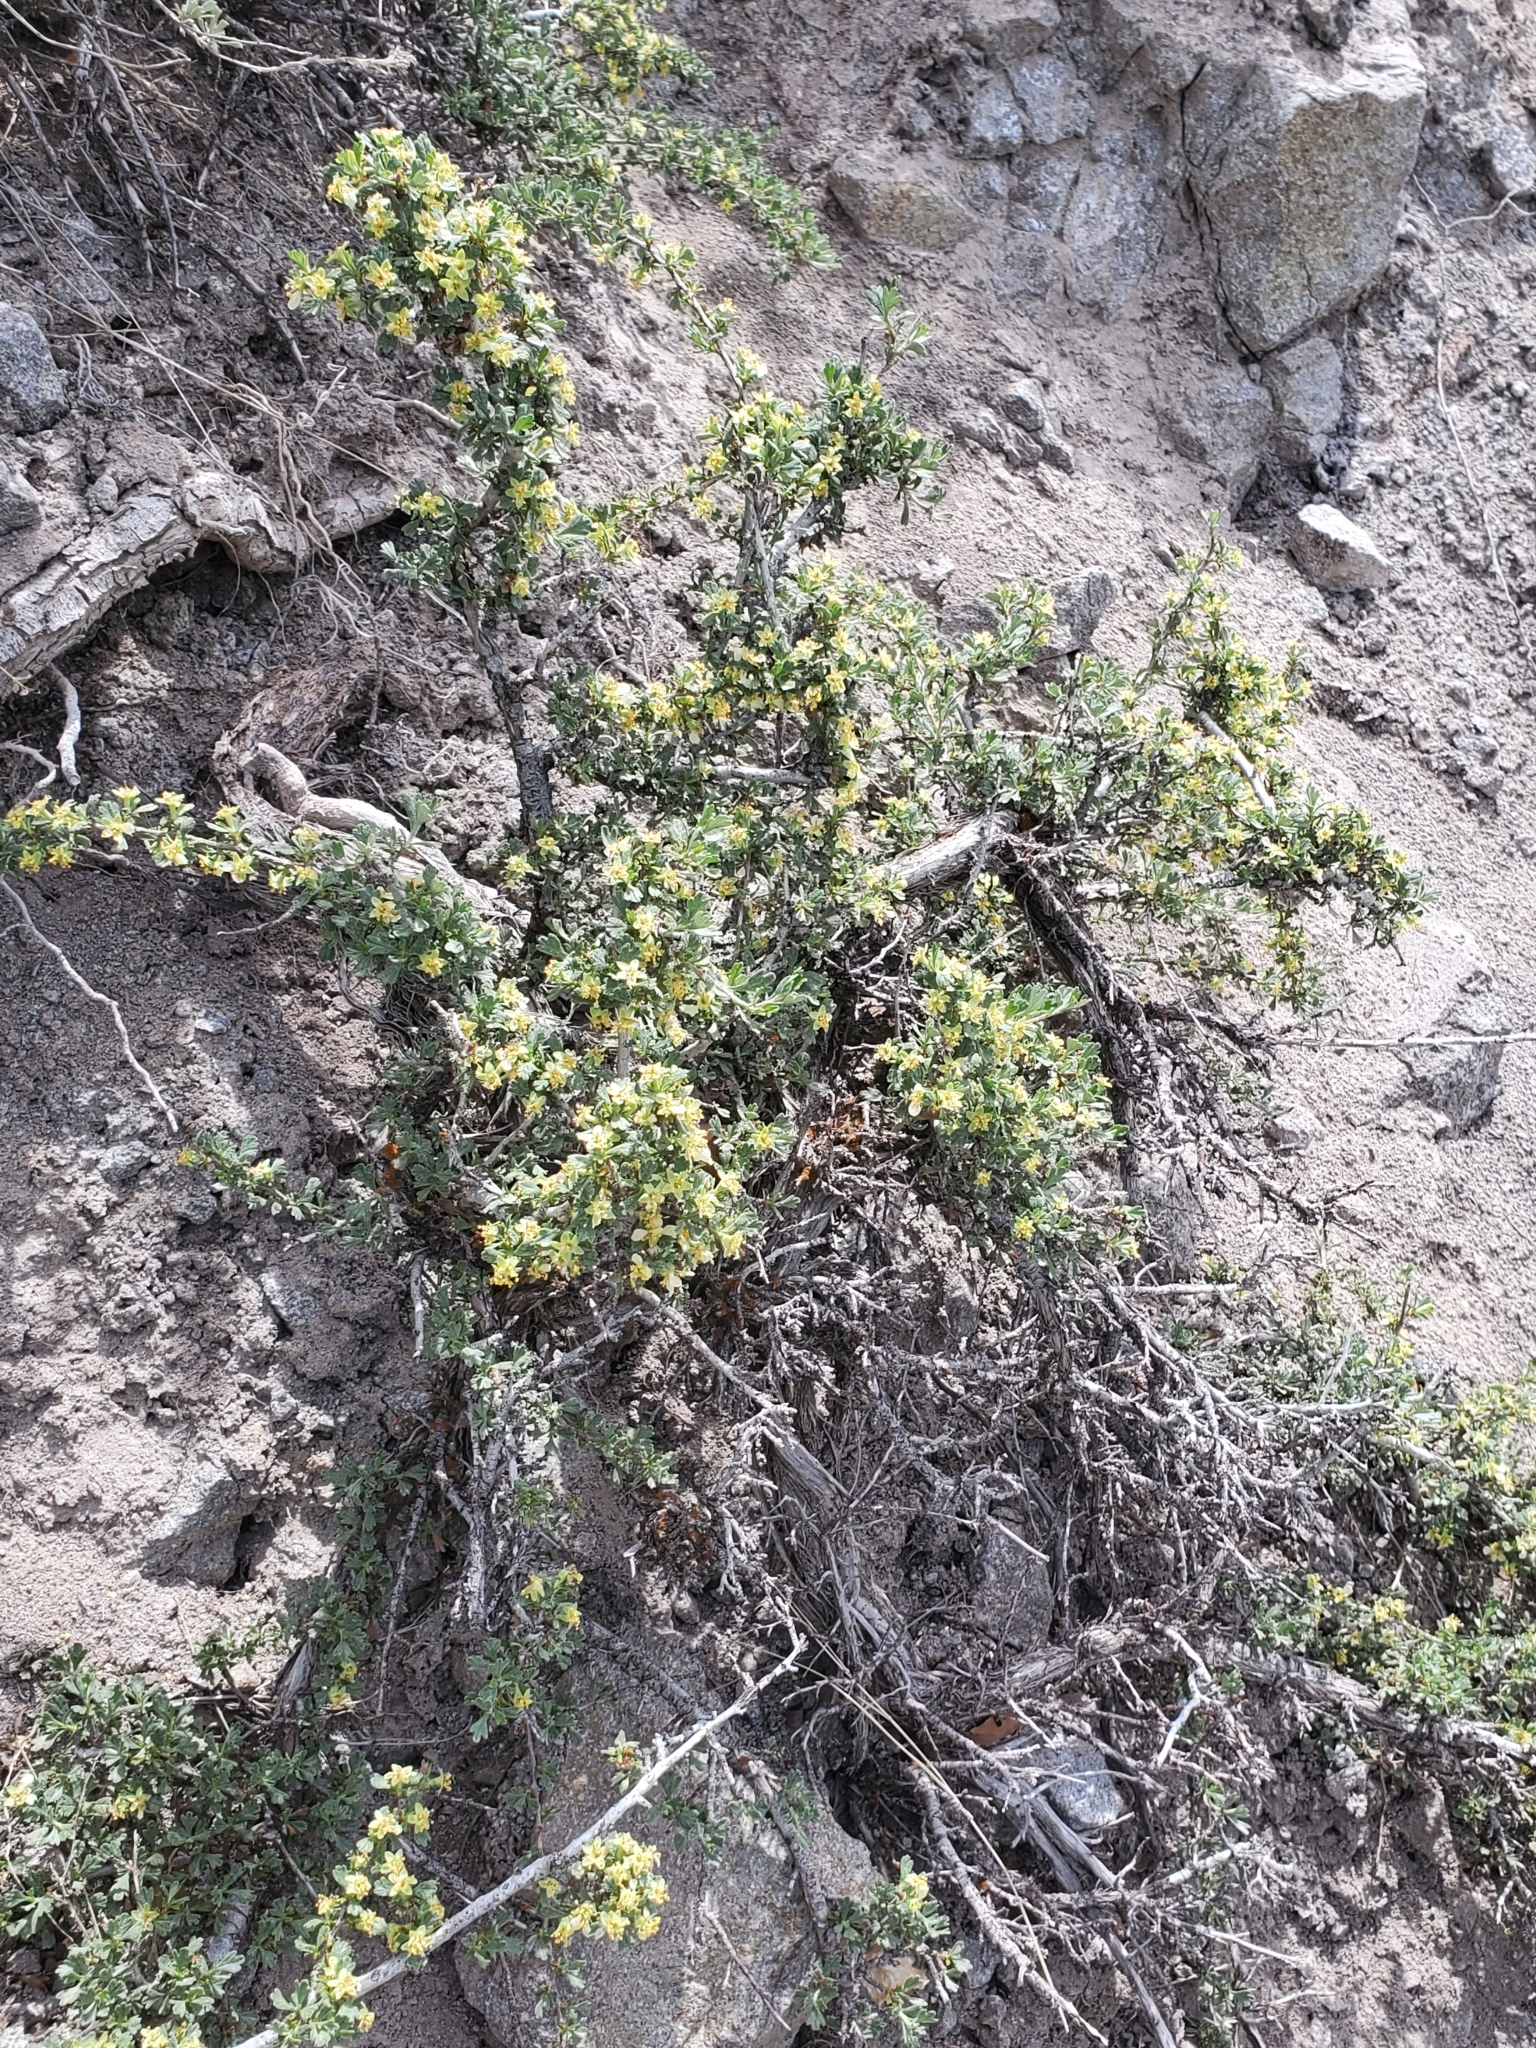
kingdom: Plantae
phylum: Tracheophyta
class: Magnoliopsida
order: Rosales
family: Rosaceae
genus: Purshia
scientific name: Purshia tridentata
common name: Antelope bitterbrush
